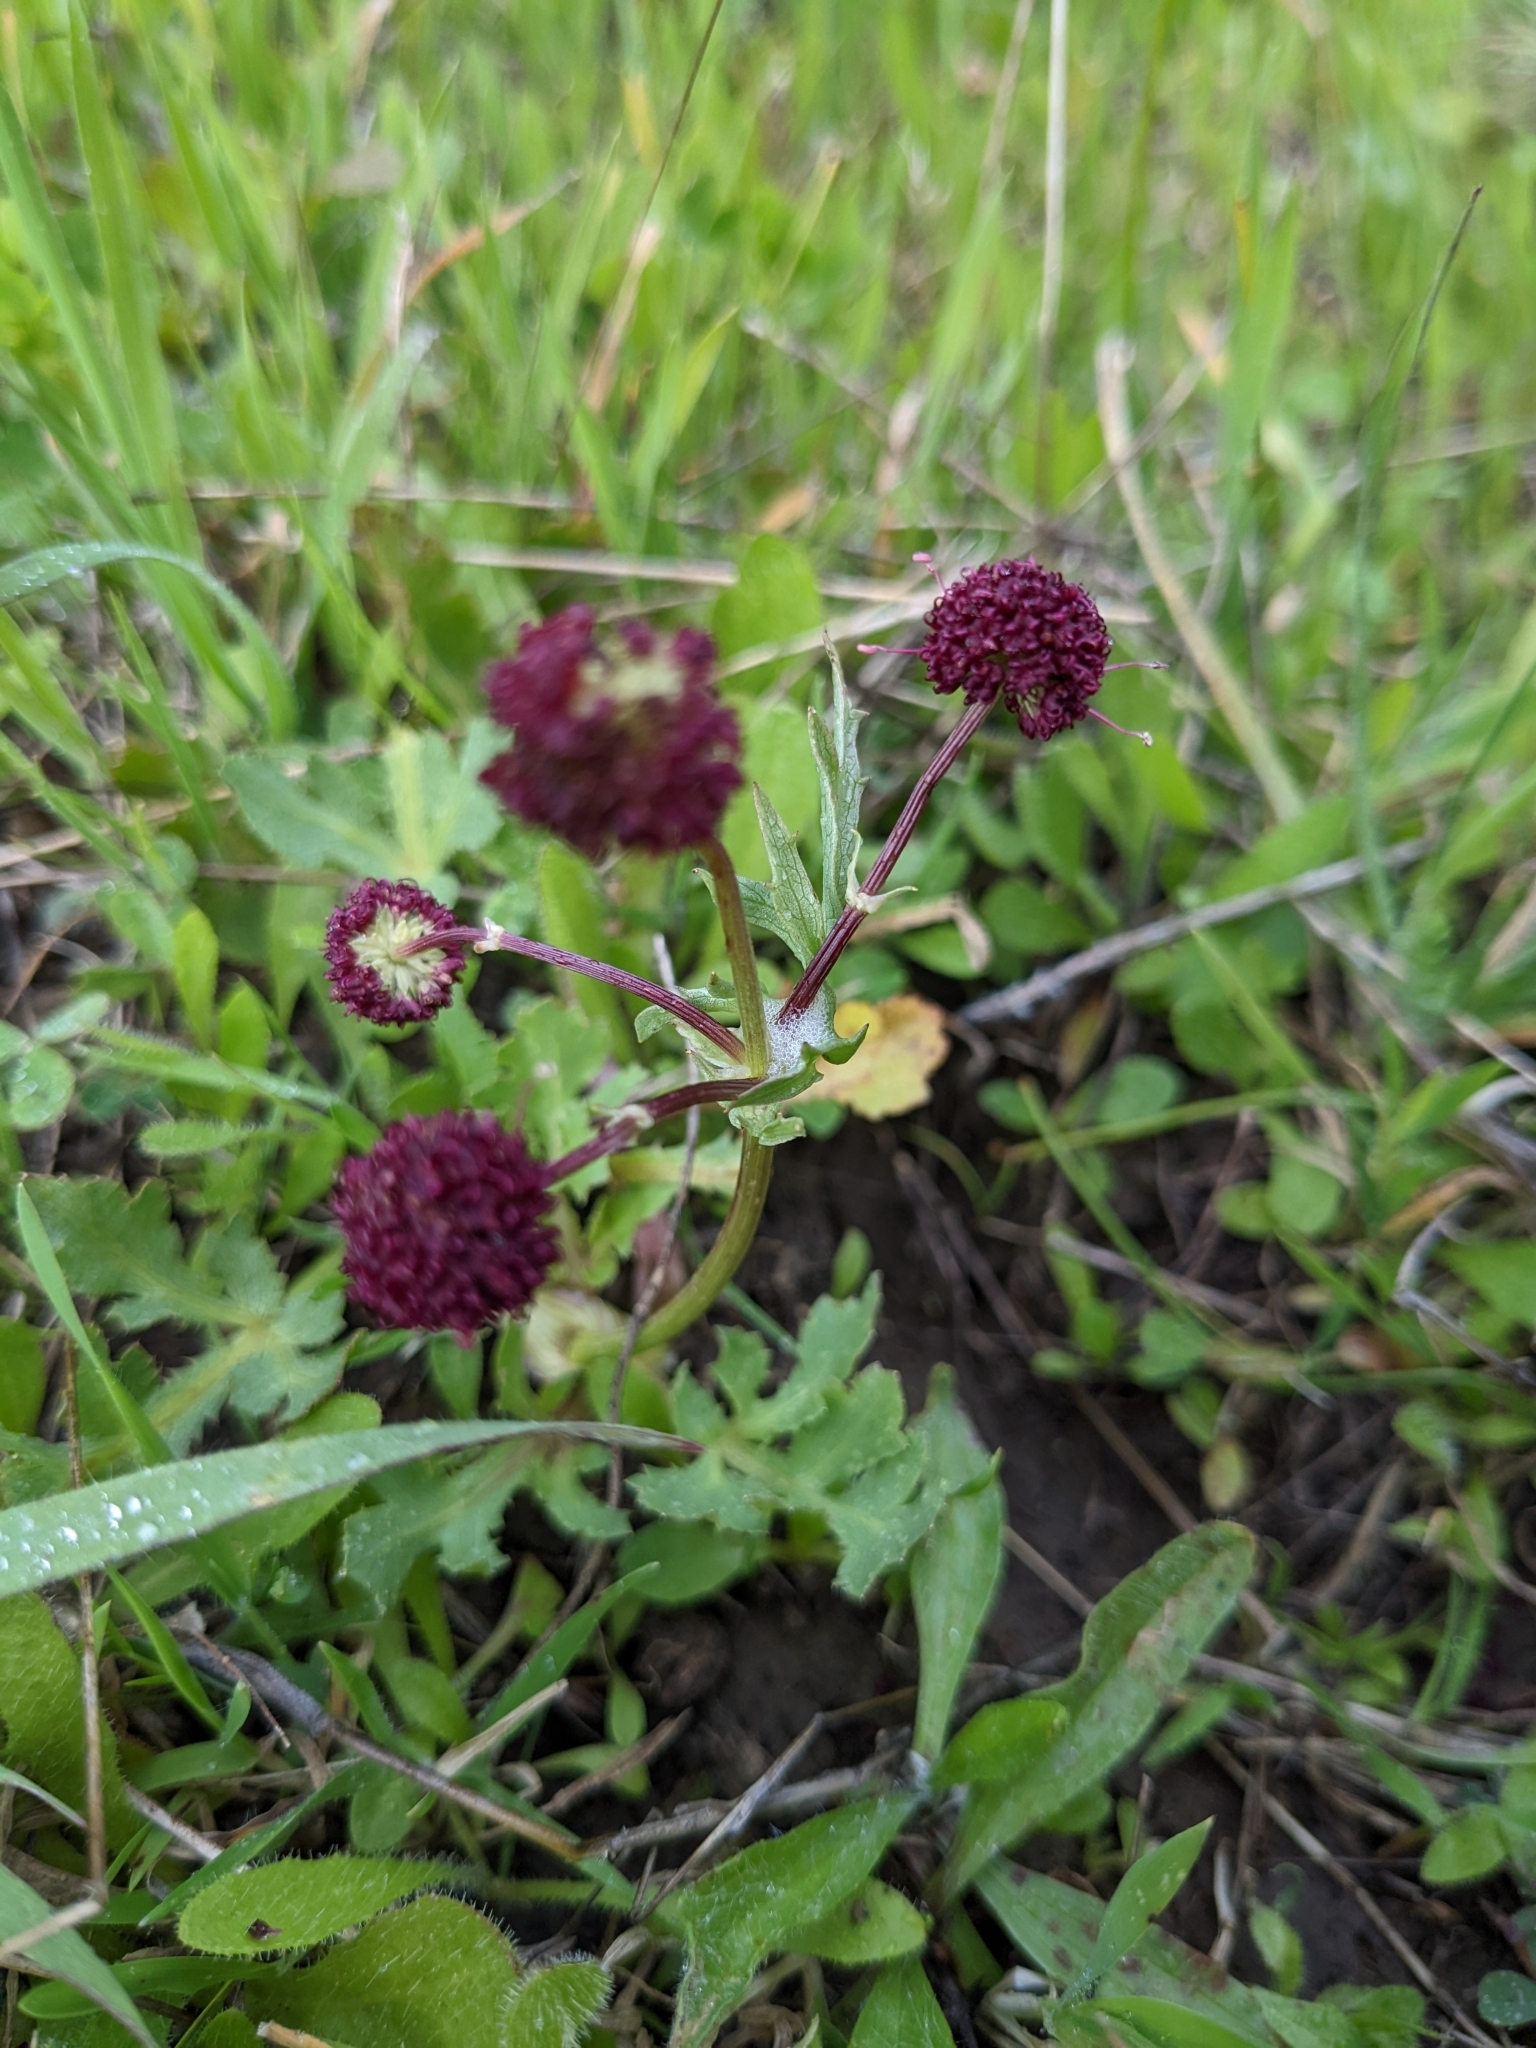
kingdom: Plantae
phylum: Tracheophyta
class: Magnoliopsida
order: Apiales
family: Apiaceae
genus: Sanicula
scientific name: Sanicula bipinnatifida
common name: Shoe-buttons
